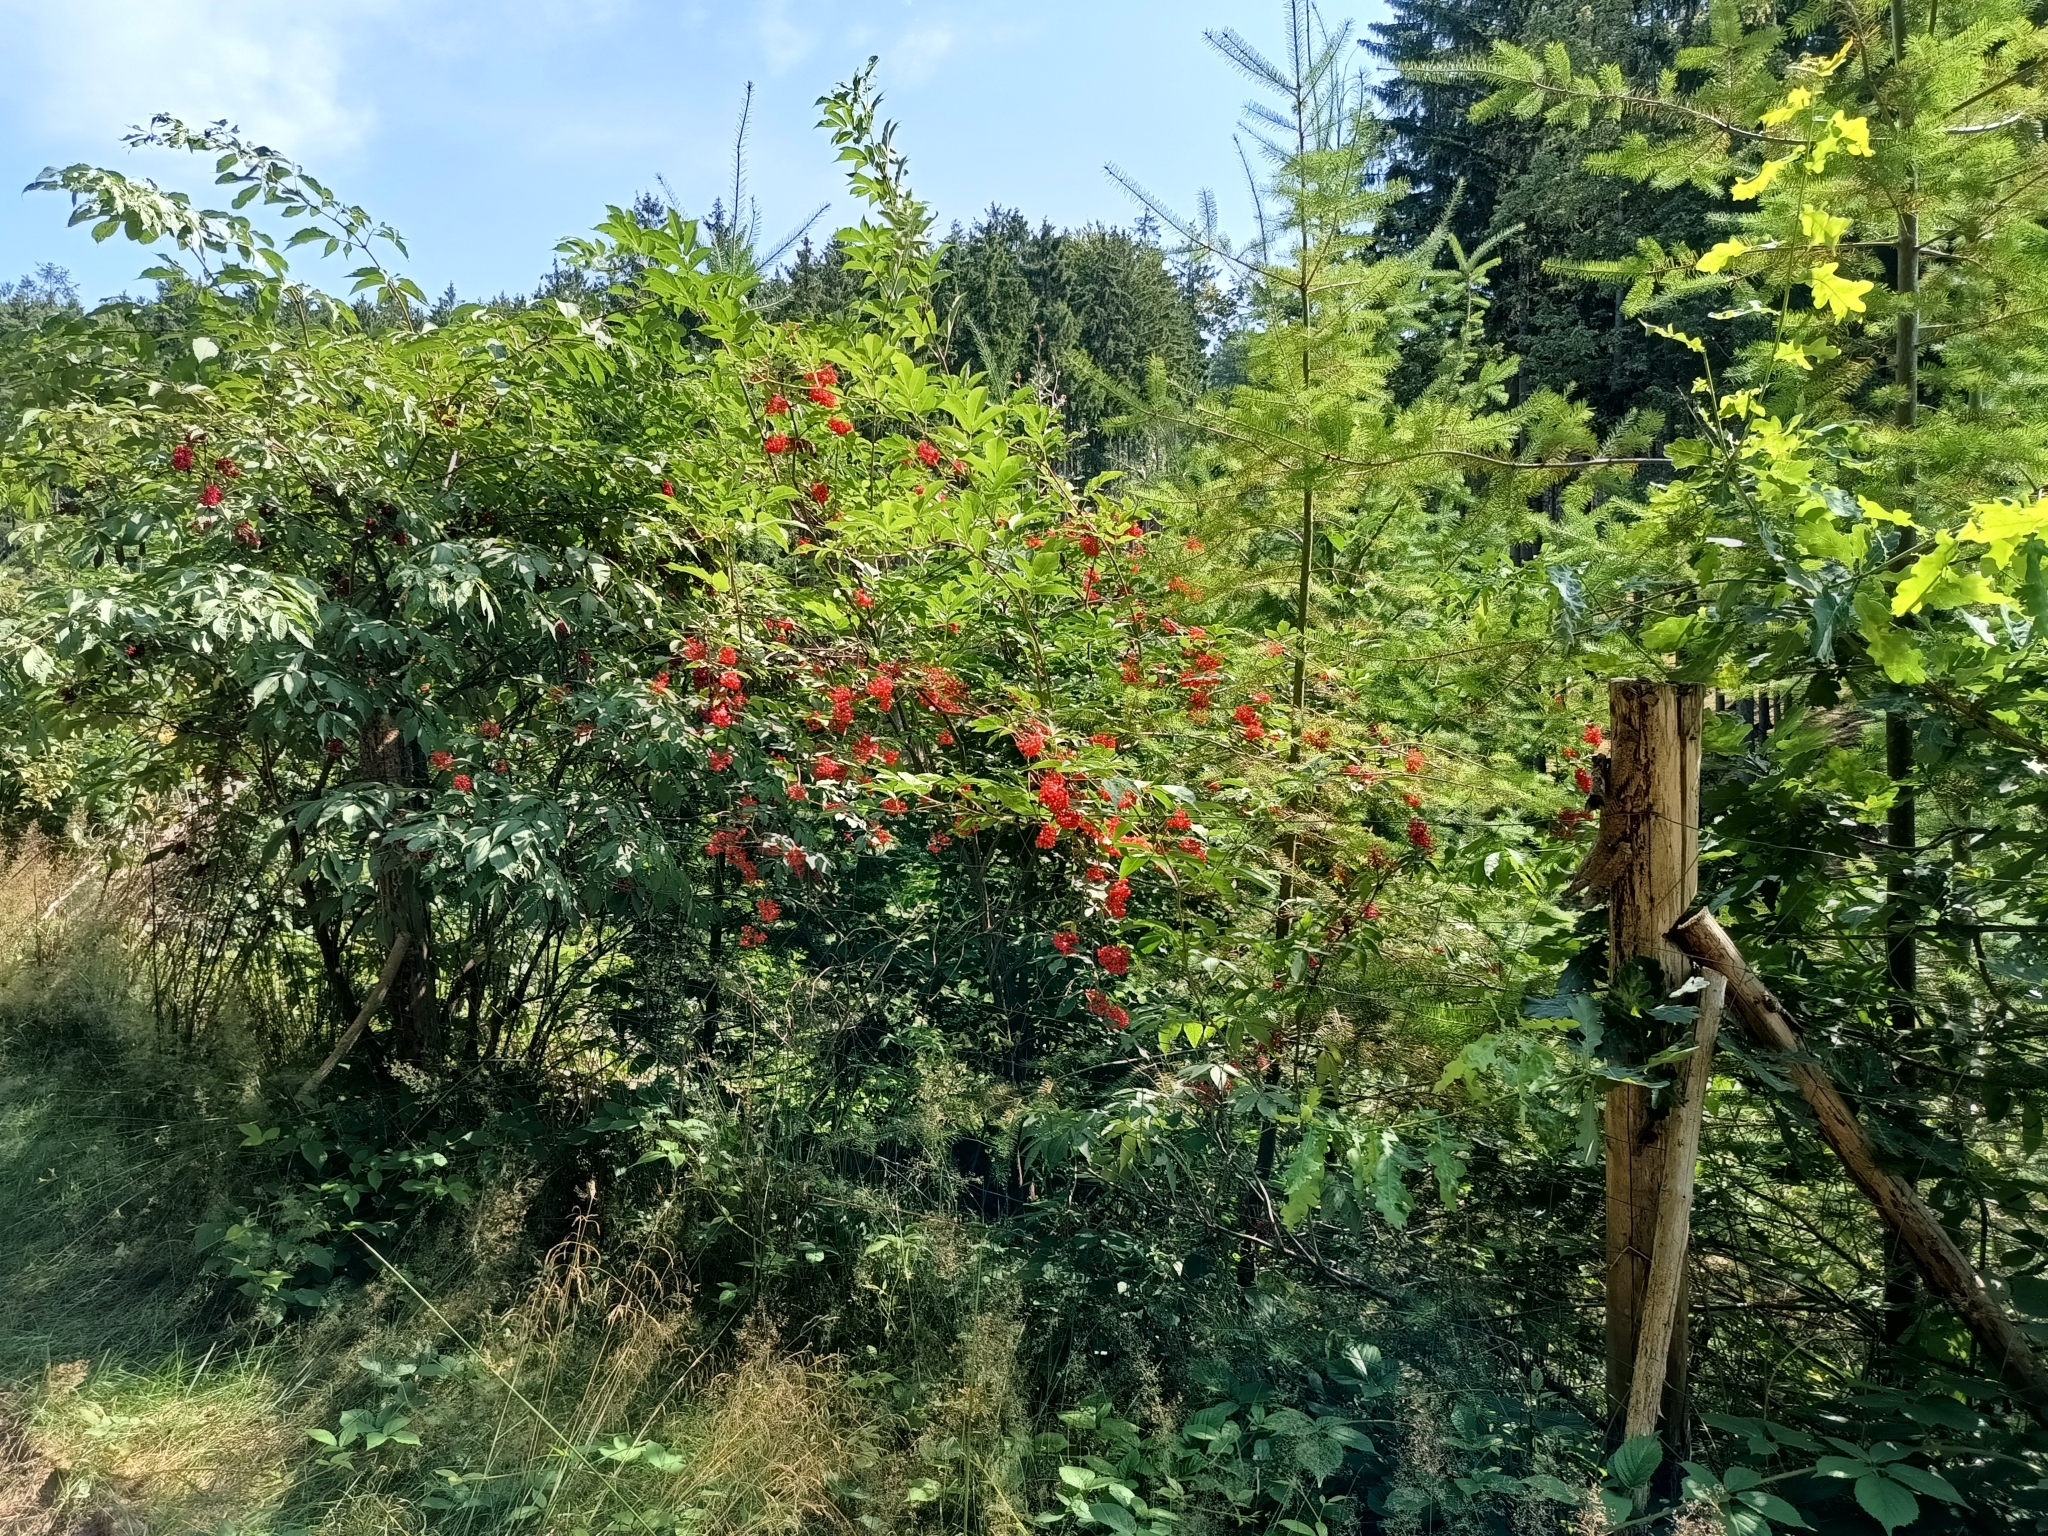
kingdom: Plantae
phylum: Tracheophyta
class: Magnoliopsida
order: Dipsacales
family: Viburnaceae
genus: Sambucus
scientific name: Sambucus racemosa
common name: Red-berried elder
